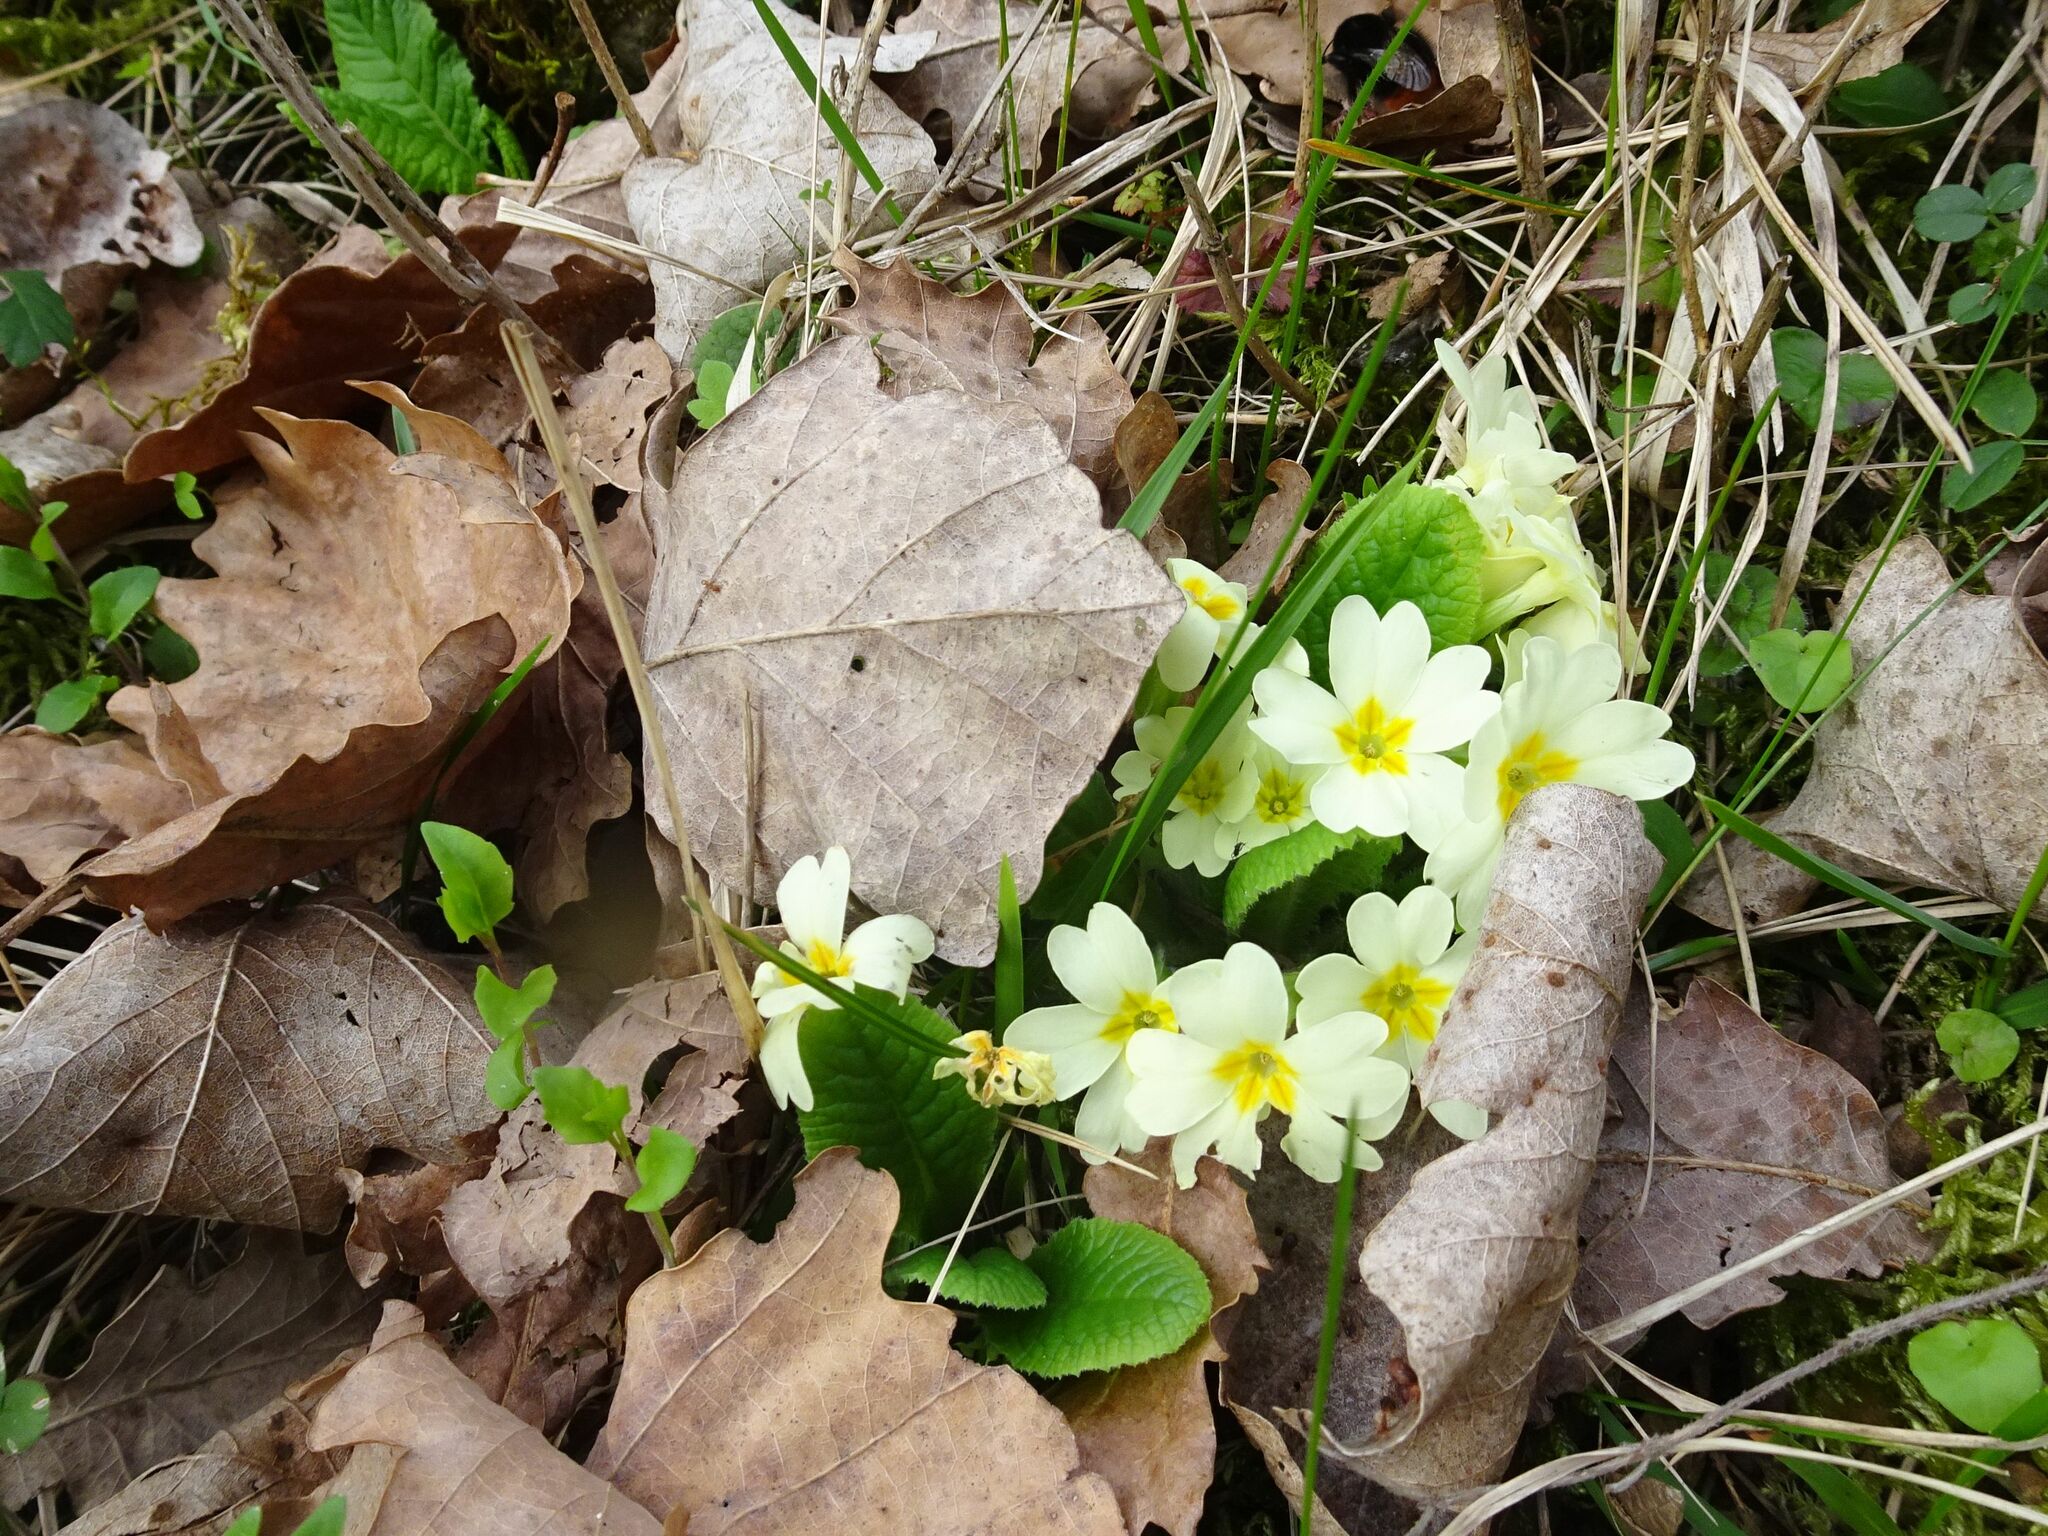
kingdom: Plantae
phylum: Tracheophyta
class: Magnoliopsida
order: Ericales
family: Primulaceae
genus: Primula
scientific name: Primula vulgaris
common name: Primrose
